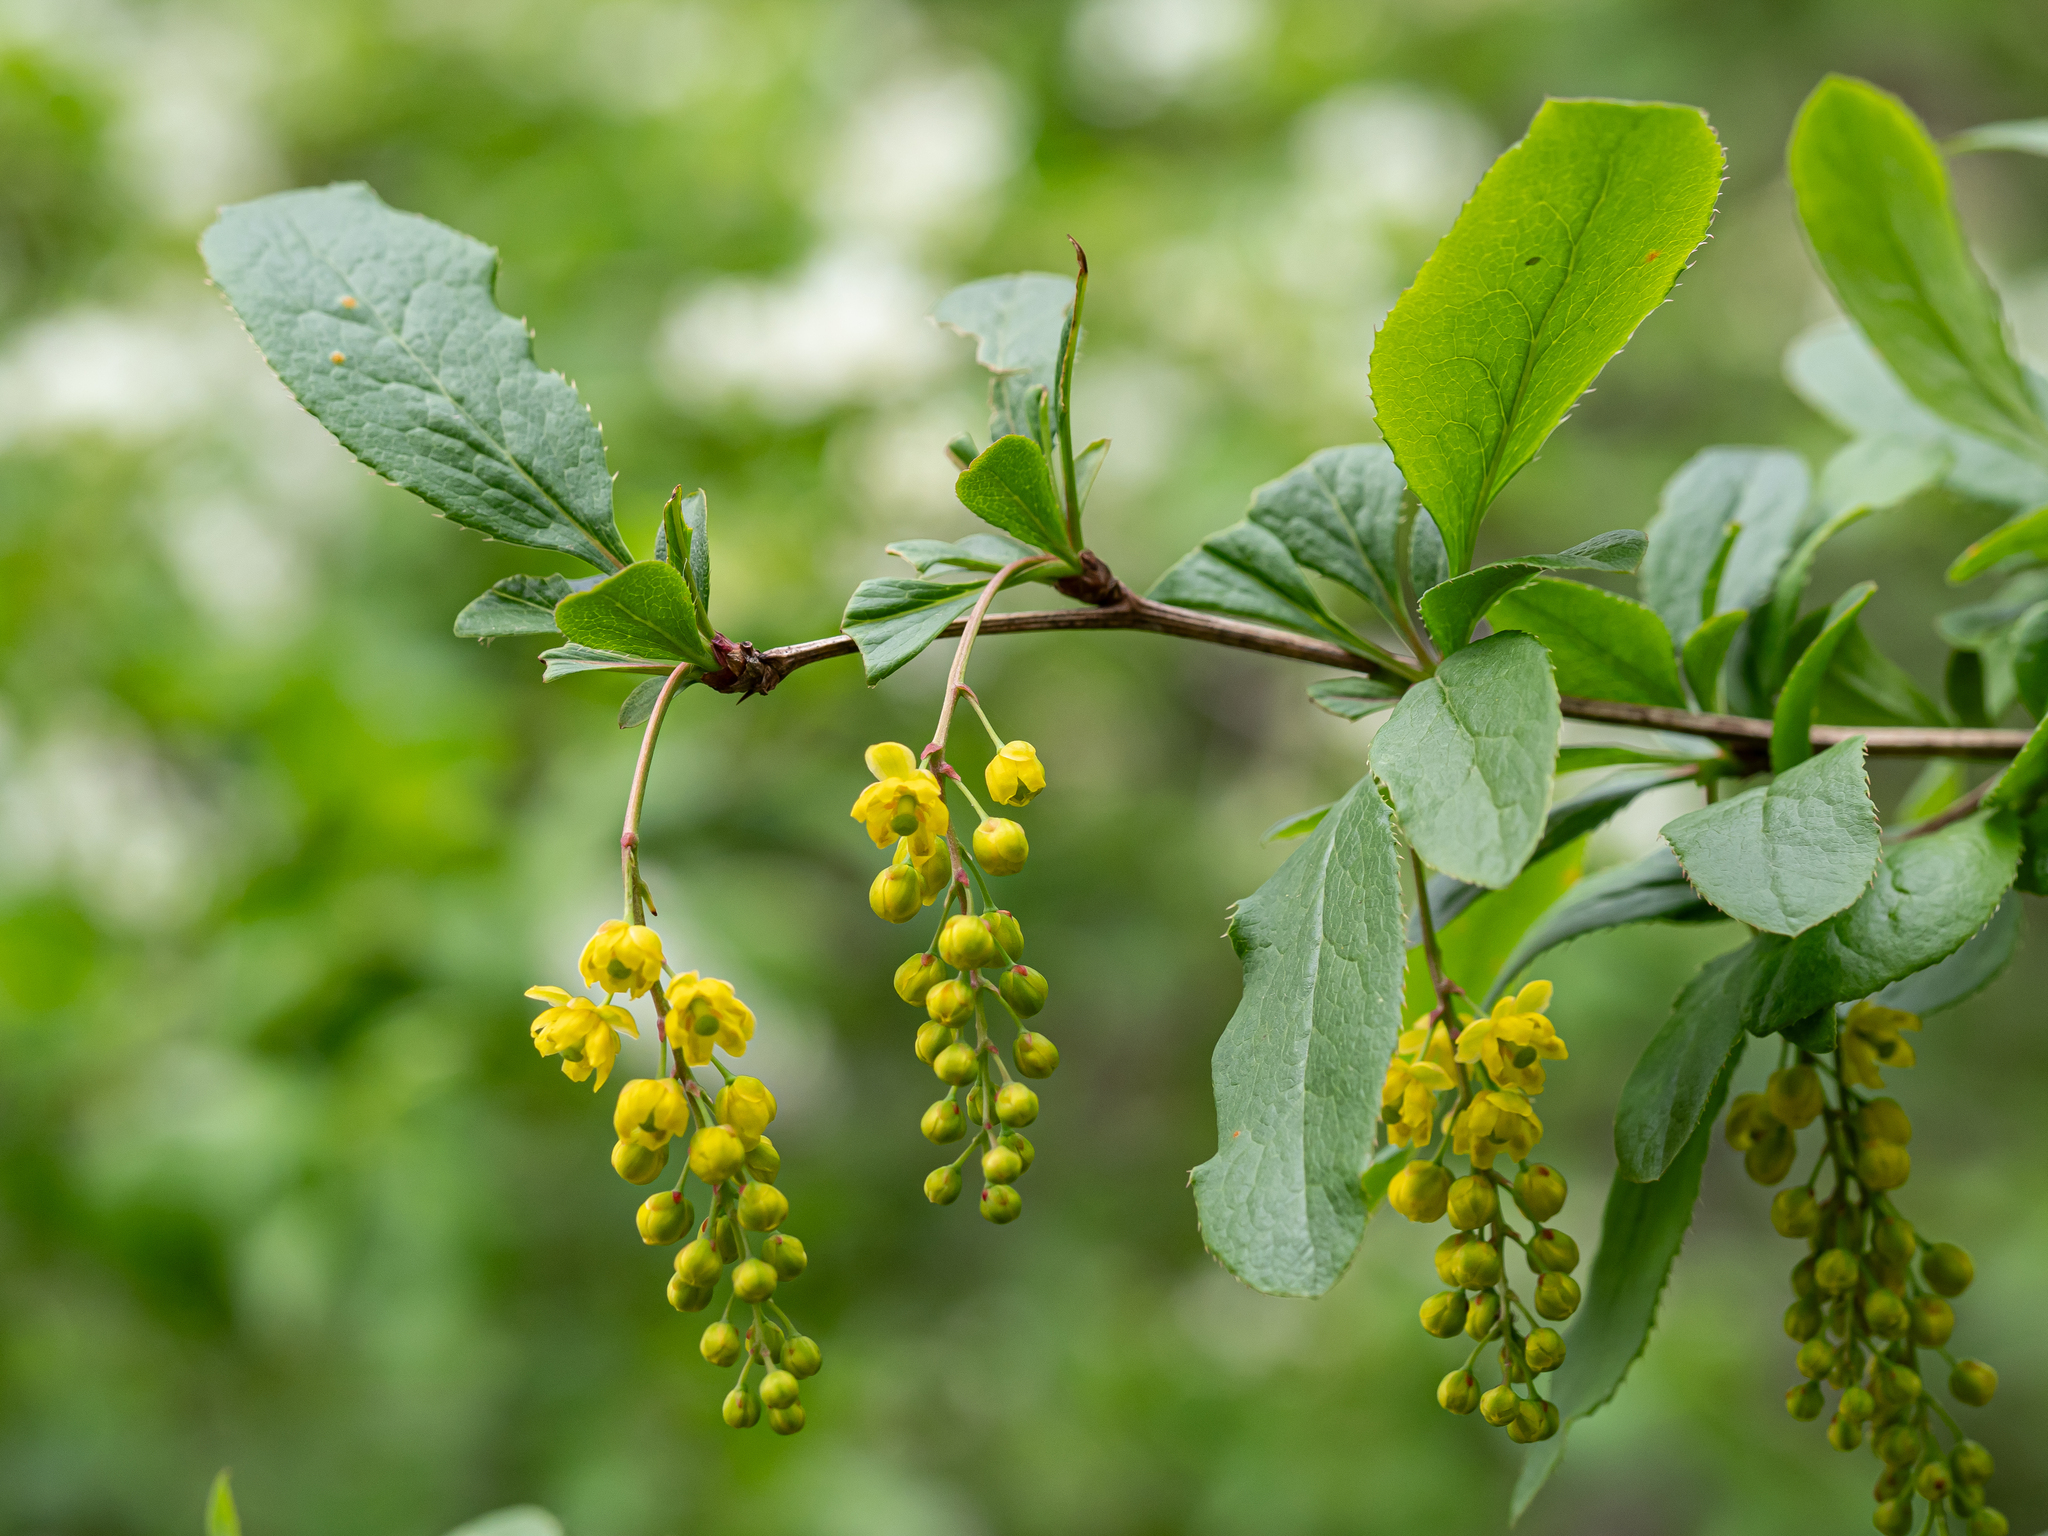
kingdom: Plantae
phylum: Tracheophyta
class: Magnoliopsida
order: Ranunculales
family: Berberidaceae
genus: Berberis
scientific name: Berberis vulgaris
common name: Barberry
